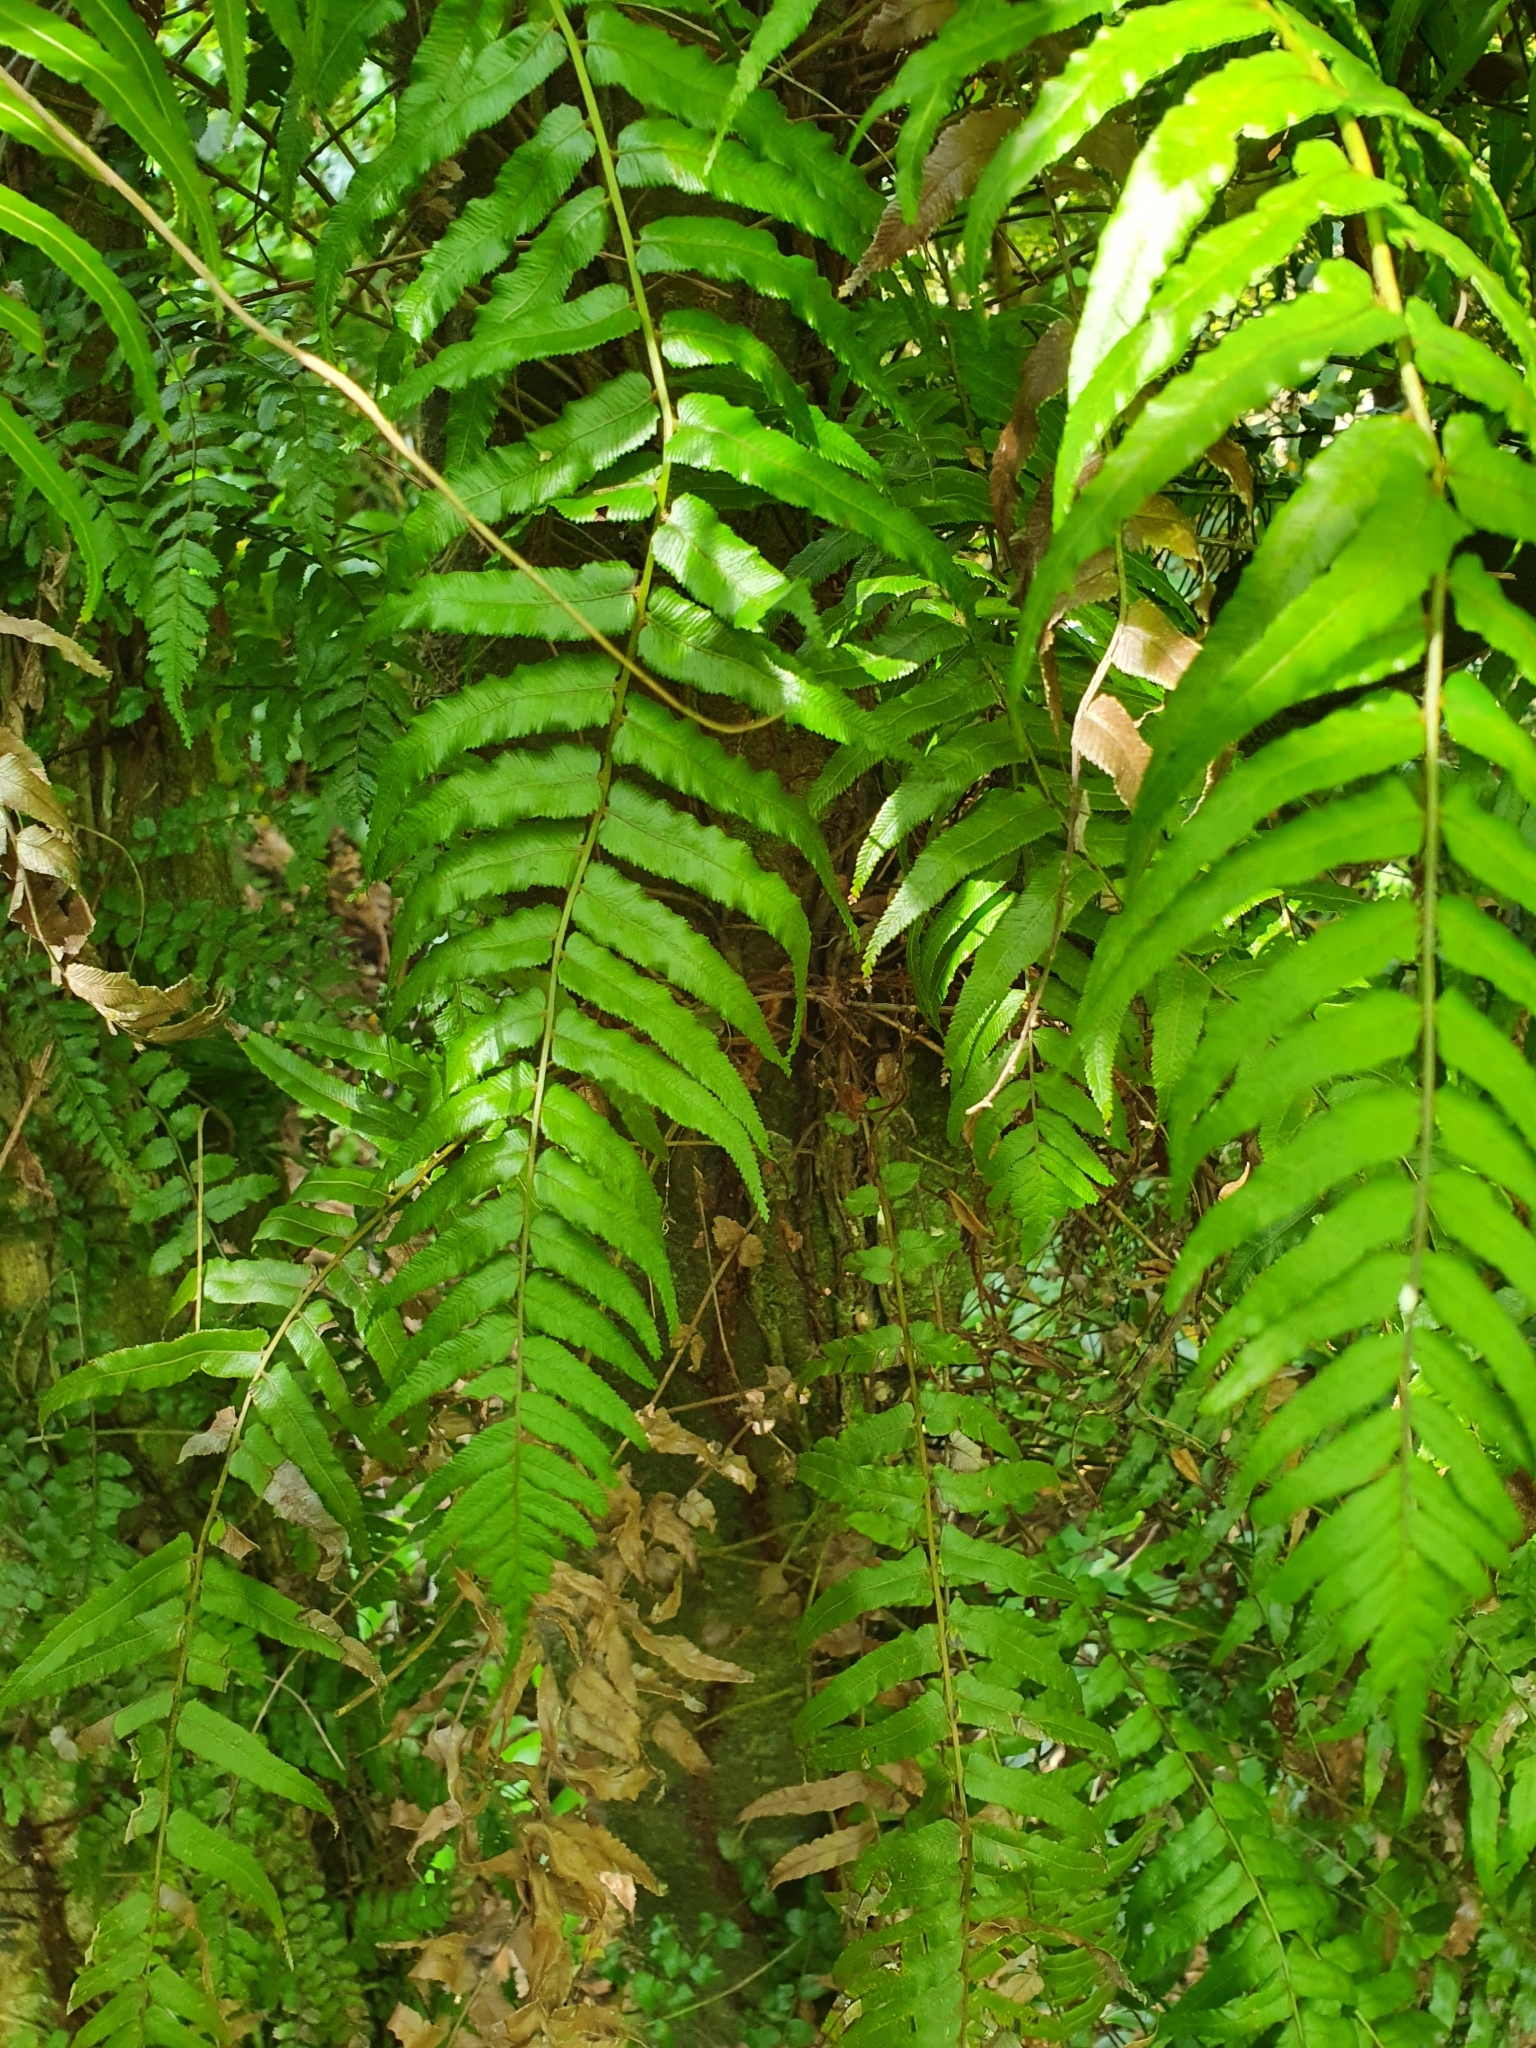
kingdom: Plantae
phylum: Tracheophyta
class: Polypodiopsida
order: Polypodiales
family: Blechnaceae
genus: Icarus
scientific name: Icarus filiformis
